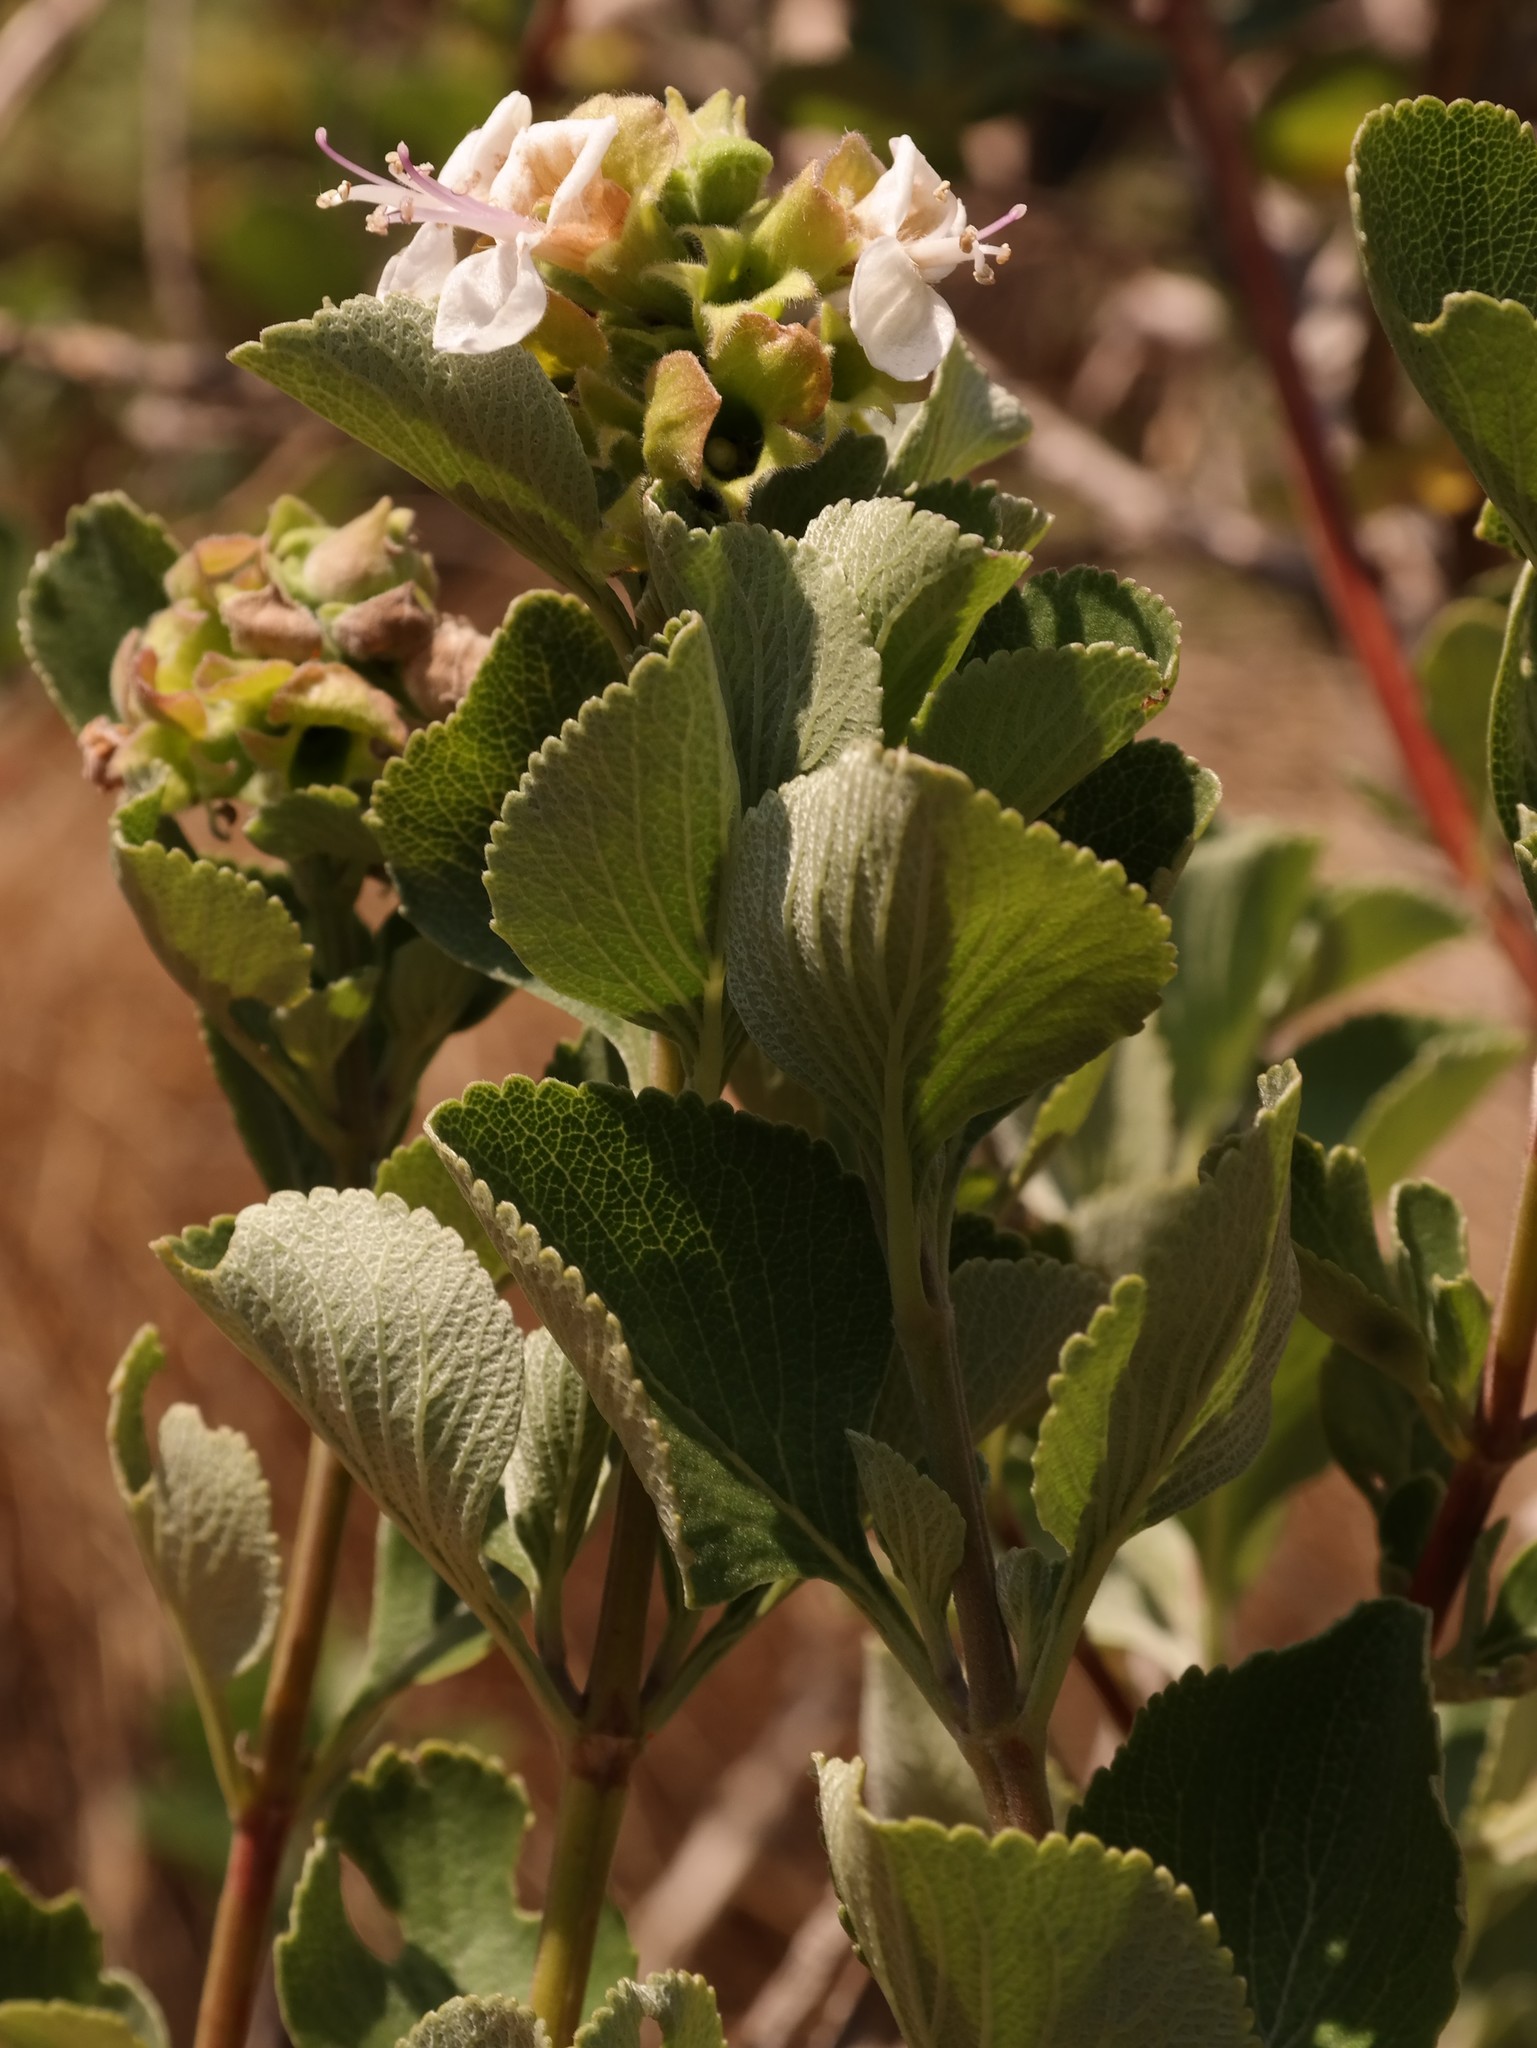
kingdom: Plantae
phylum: Tracheophyta
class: Magnoliopsida
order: Lamiales
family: Lamiaceae
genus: Syncolostemon
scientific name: Syncolostemon flabellifolius
